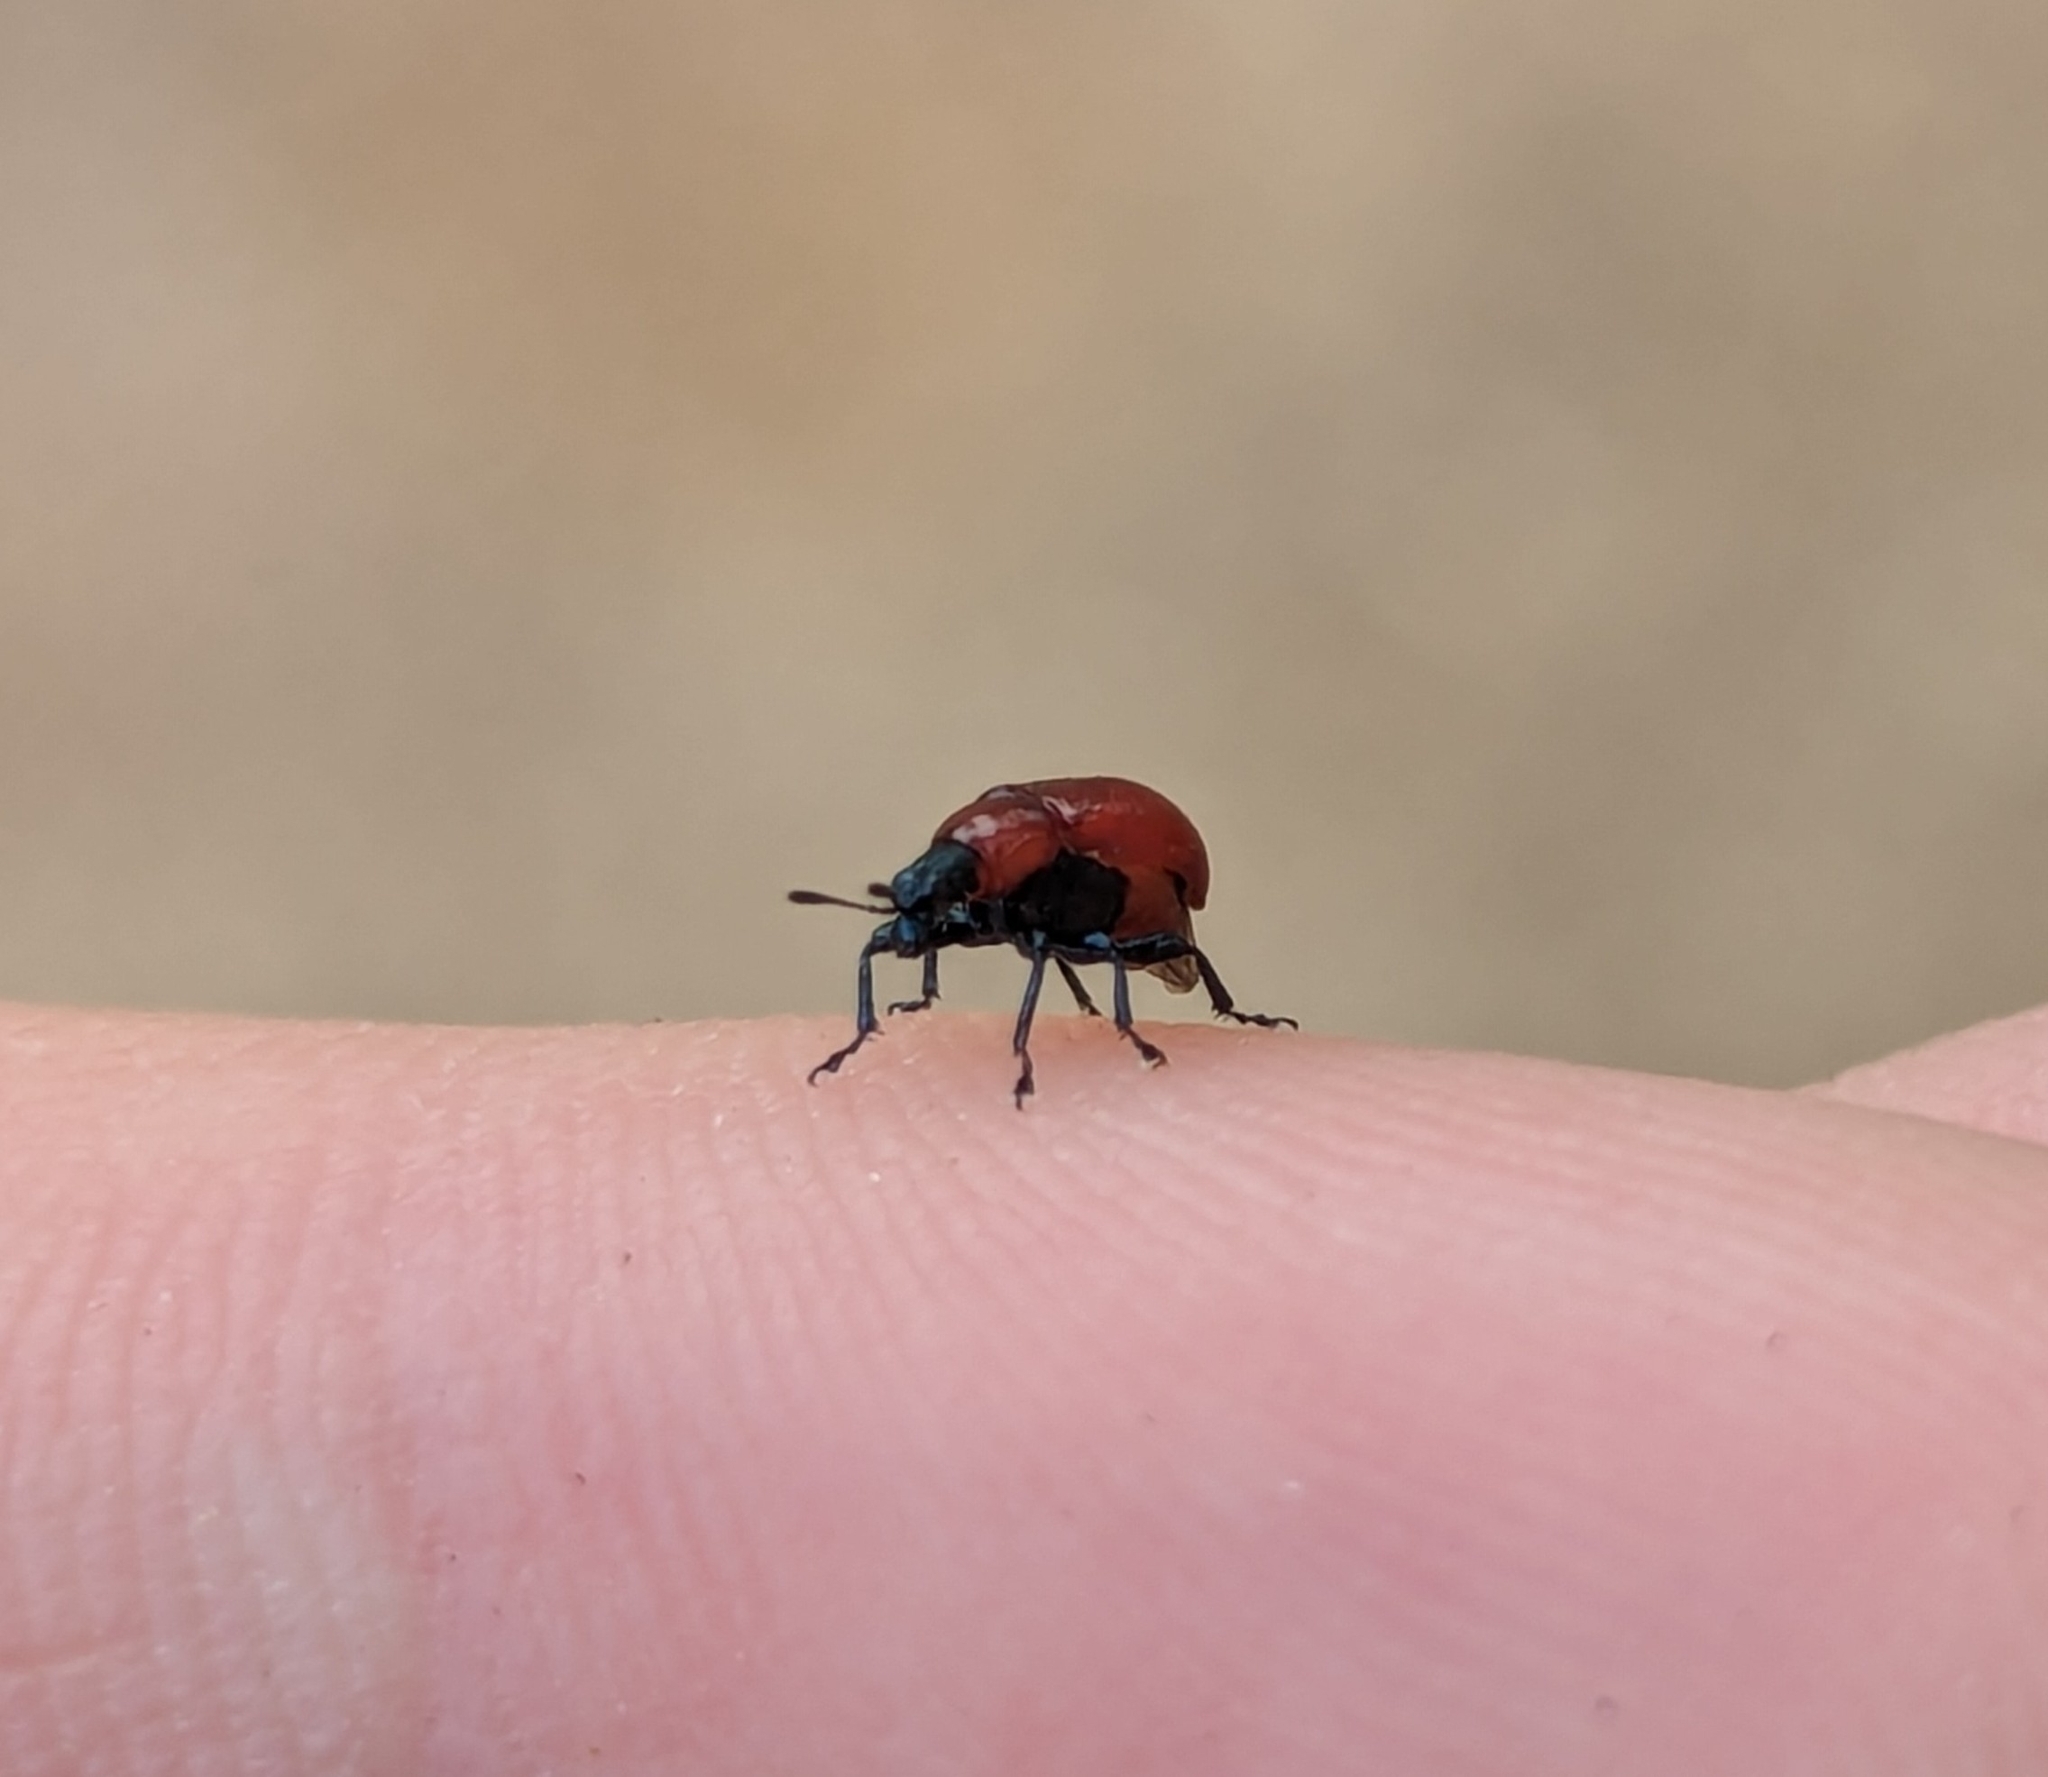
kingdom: Animalia
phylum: Arthropoda
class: Insecta
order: Coleoptera
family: Attelabidae
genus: Homoeolabus
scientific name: Homoeolabus analis
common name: Oak leaf rolling weevil
